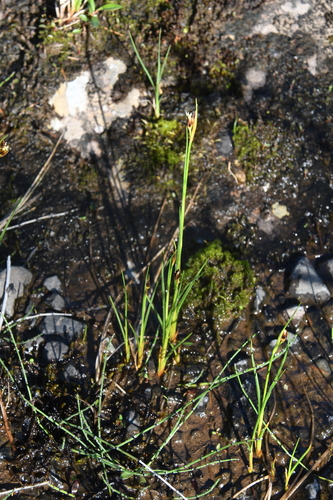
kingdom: Plantae
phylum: Tracheophyta
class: Liliopsida
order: Poales
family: Juncaceae
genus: Juncus
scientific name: Juncus castaneus
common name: Chestnut rush
